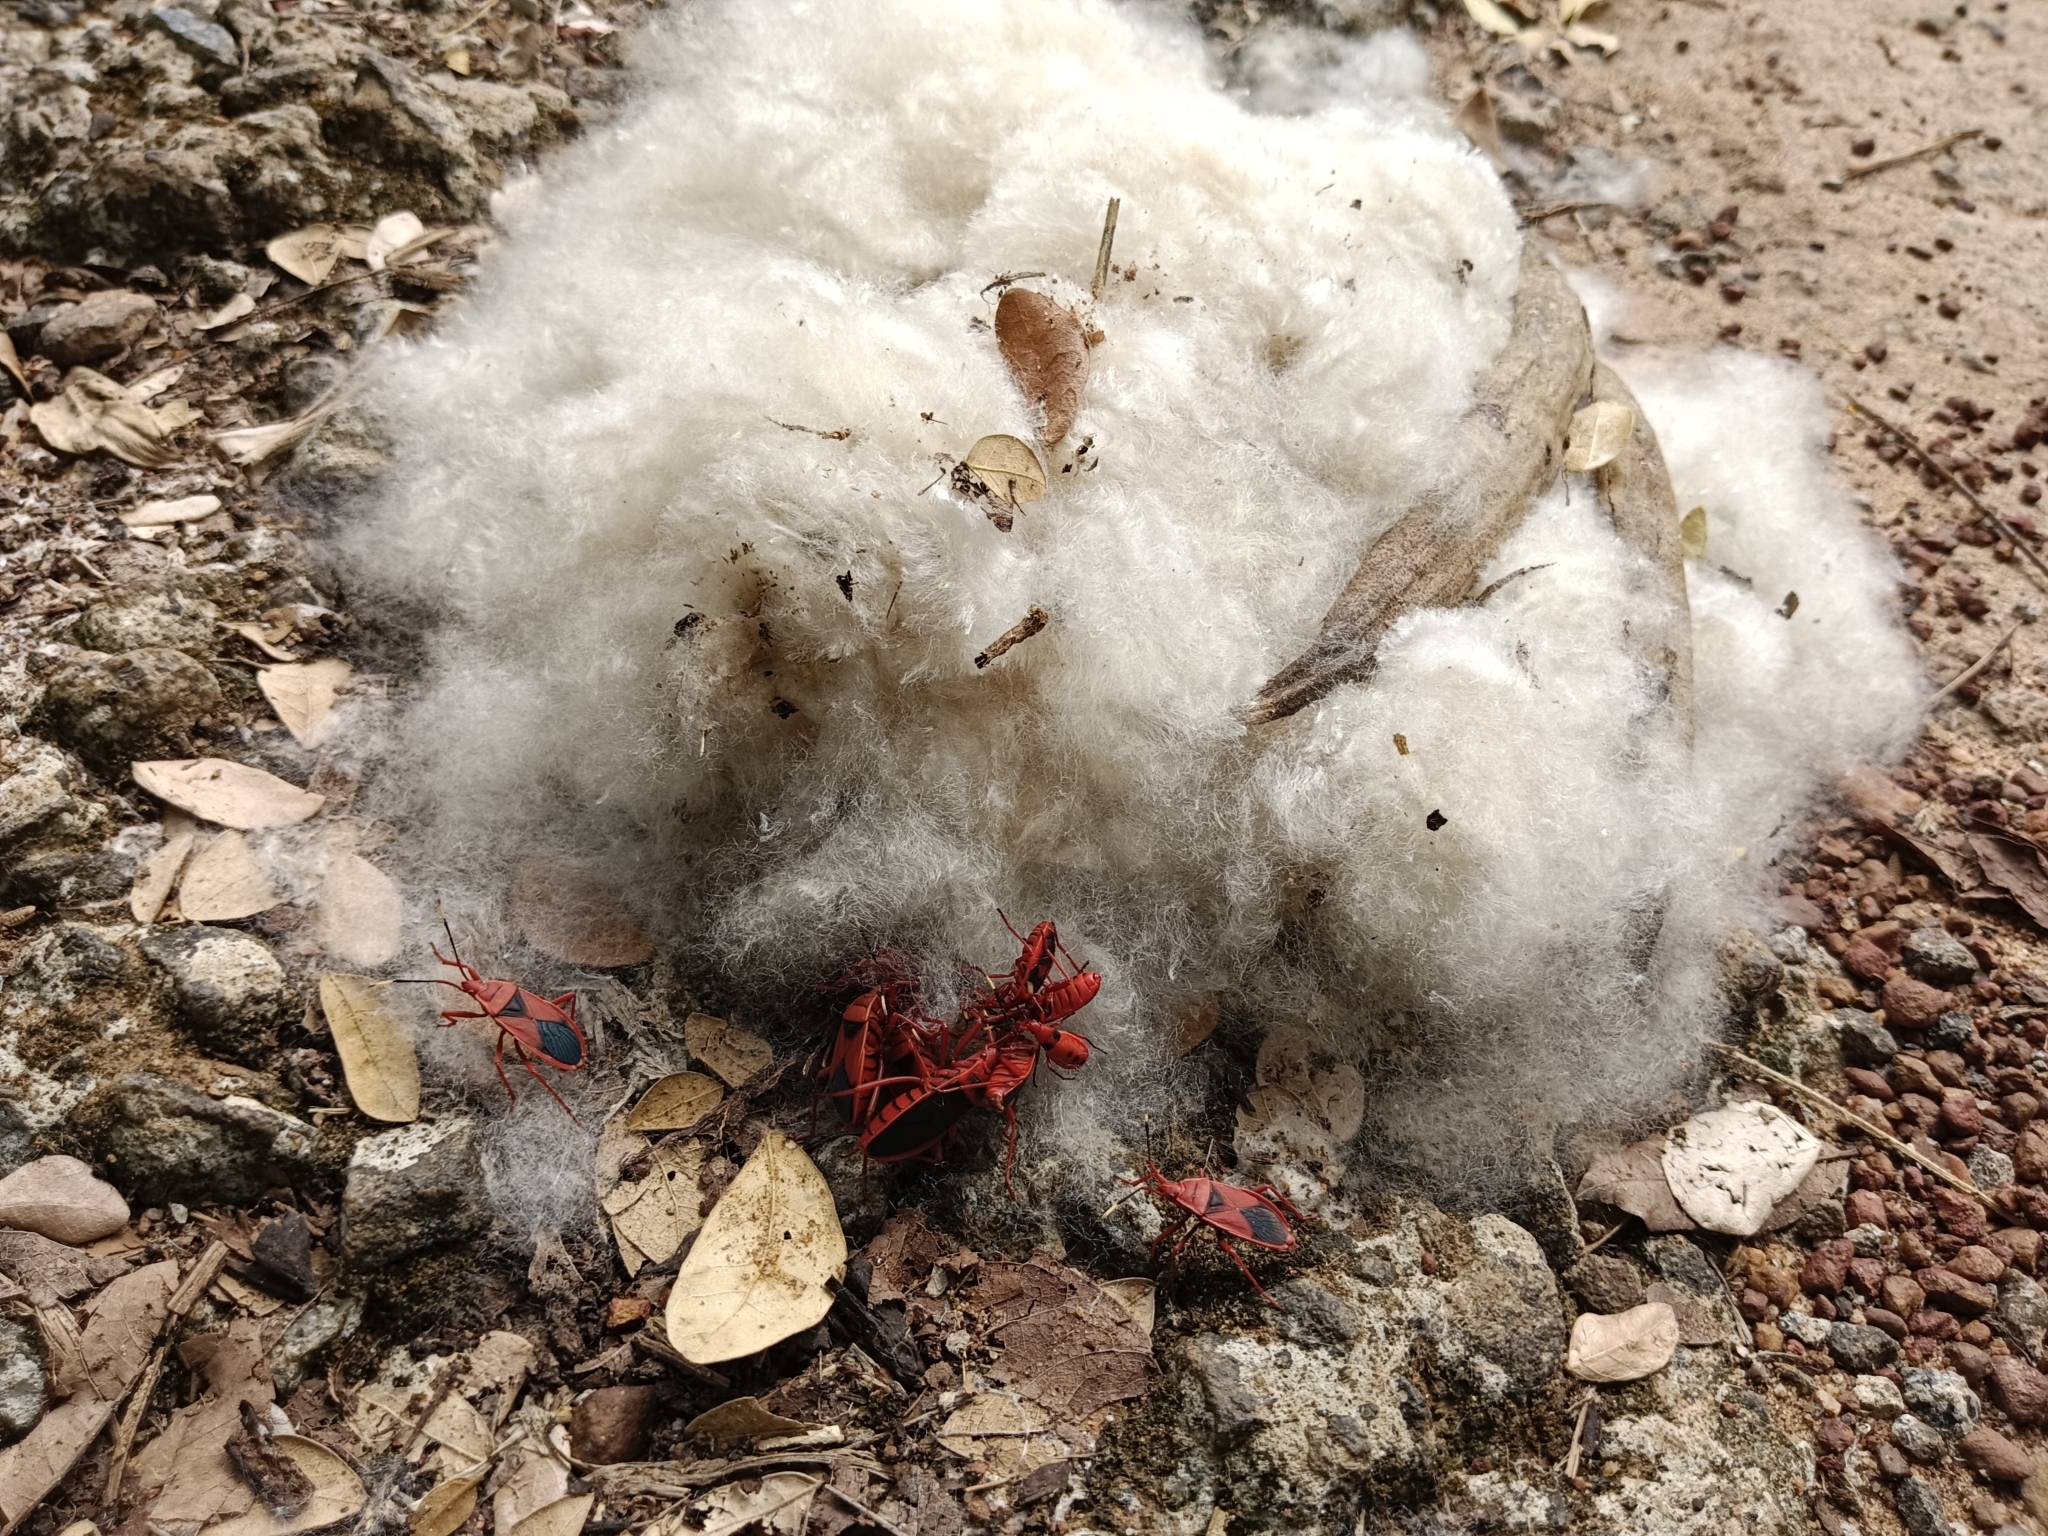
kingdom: Animalia
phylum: Arthropoda
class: Insecta
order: Hemiptera
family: Pyrrhocoridae
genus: Probergrothius
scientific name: Probergrothius
